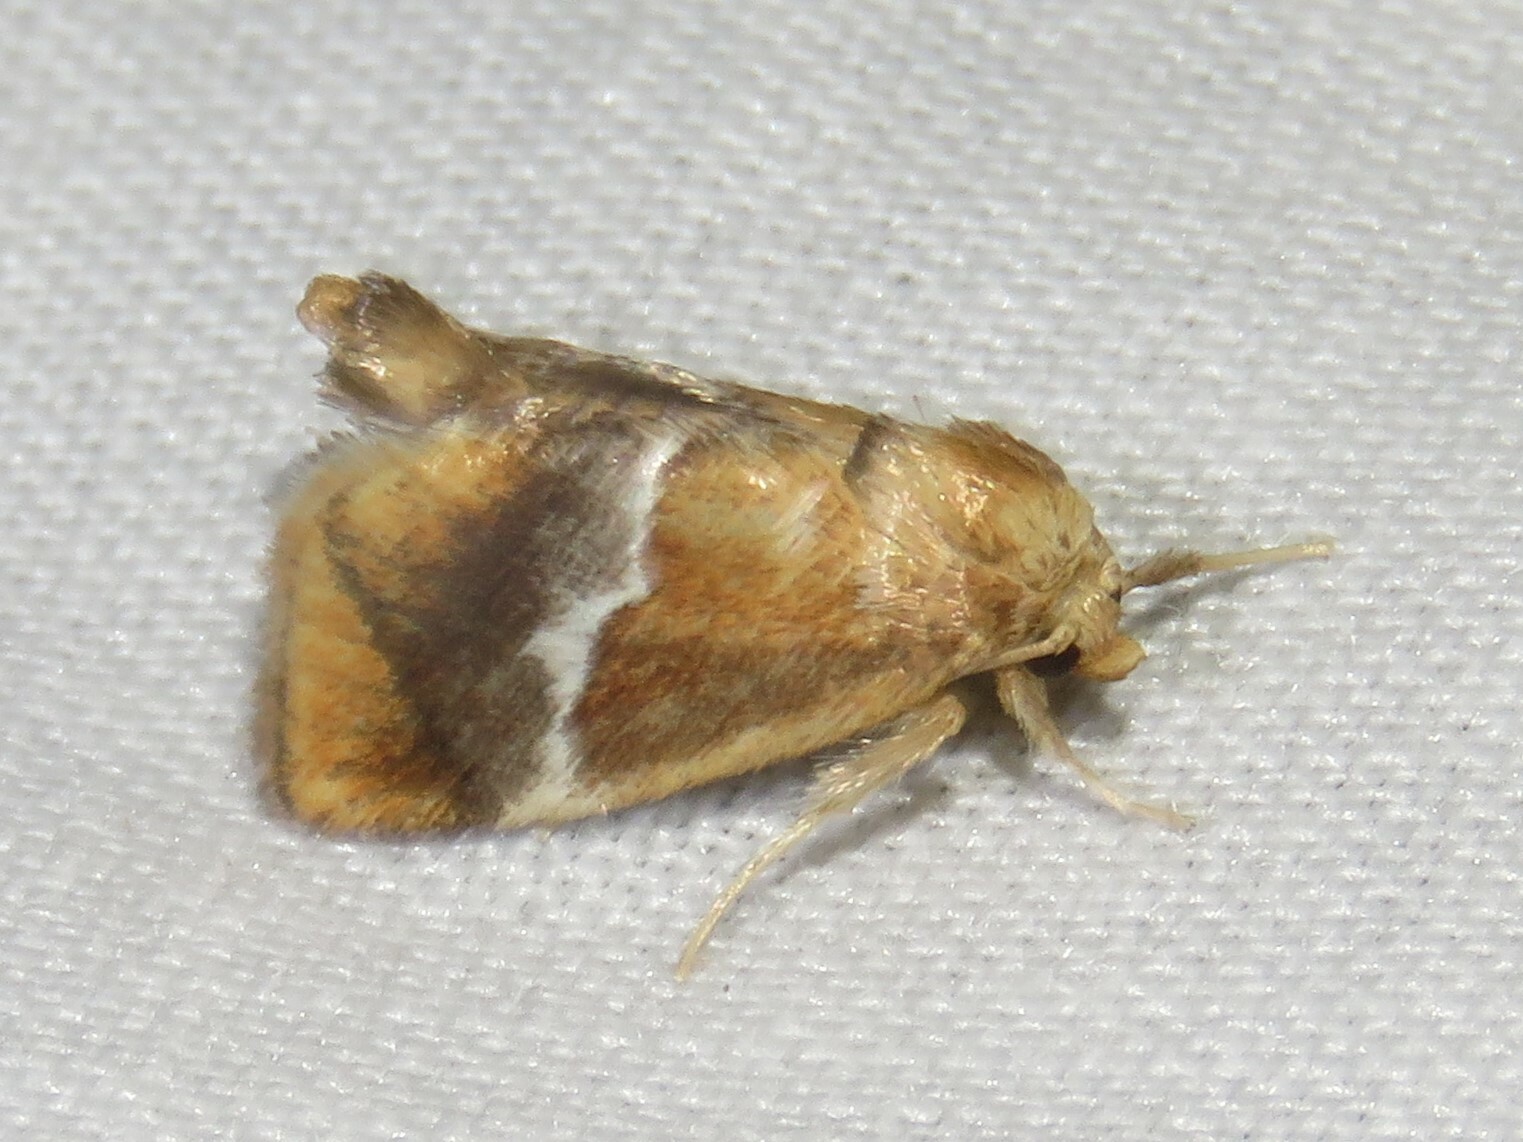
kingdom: Animalia
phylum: Arthropoda
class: Insecta
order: Lepidoptera
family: Limacodidae
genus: Lithacodes
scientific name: Lithacodes fasciola
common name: Yellow-shouldered slug moth
